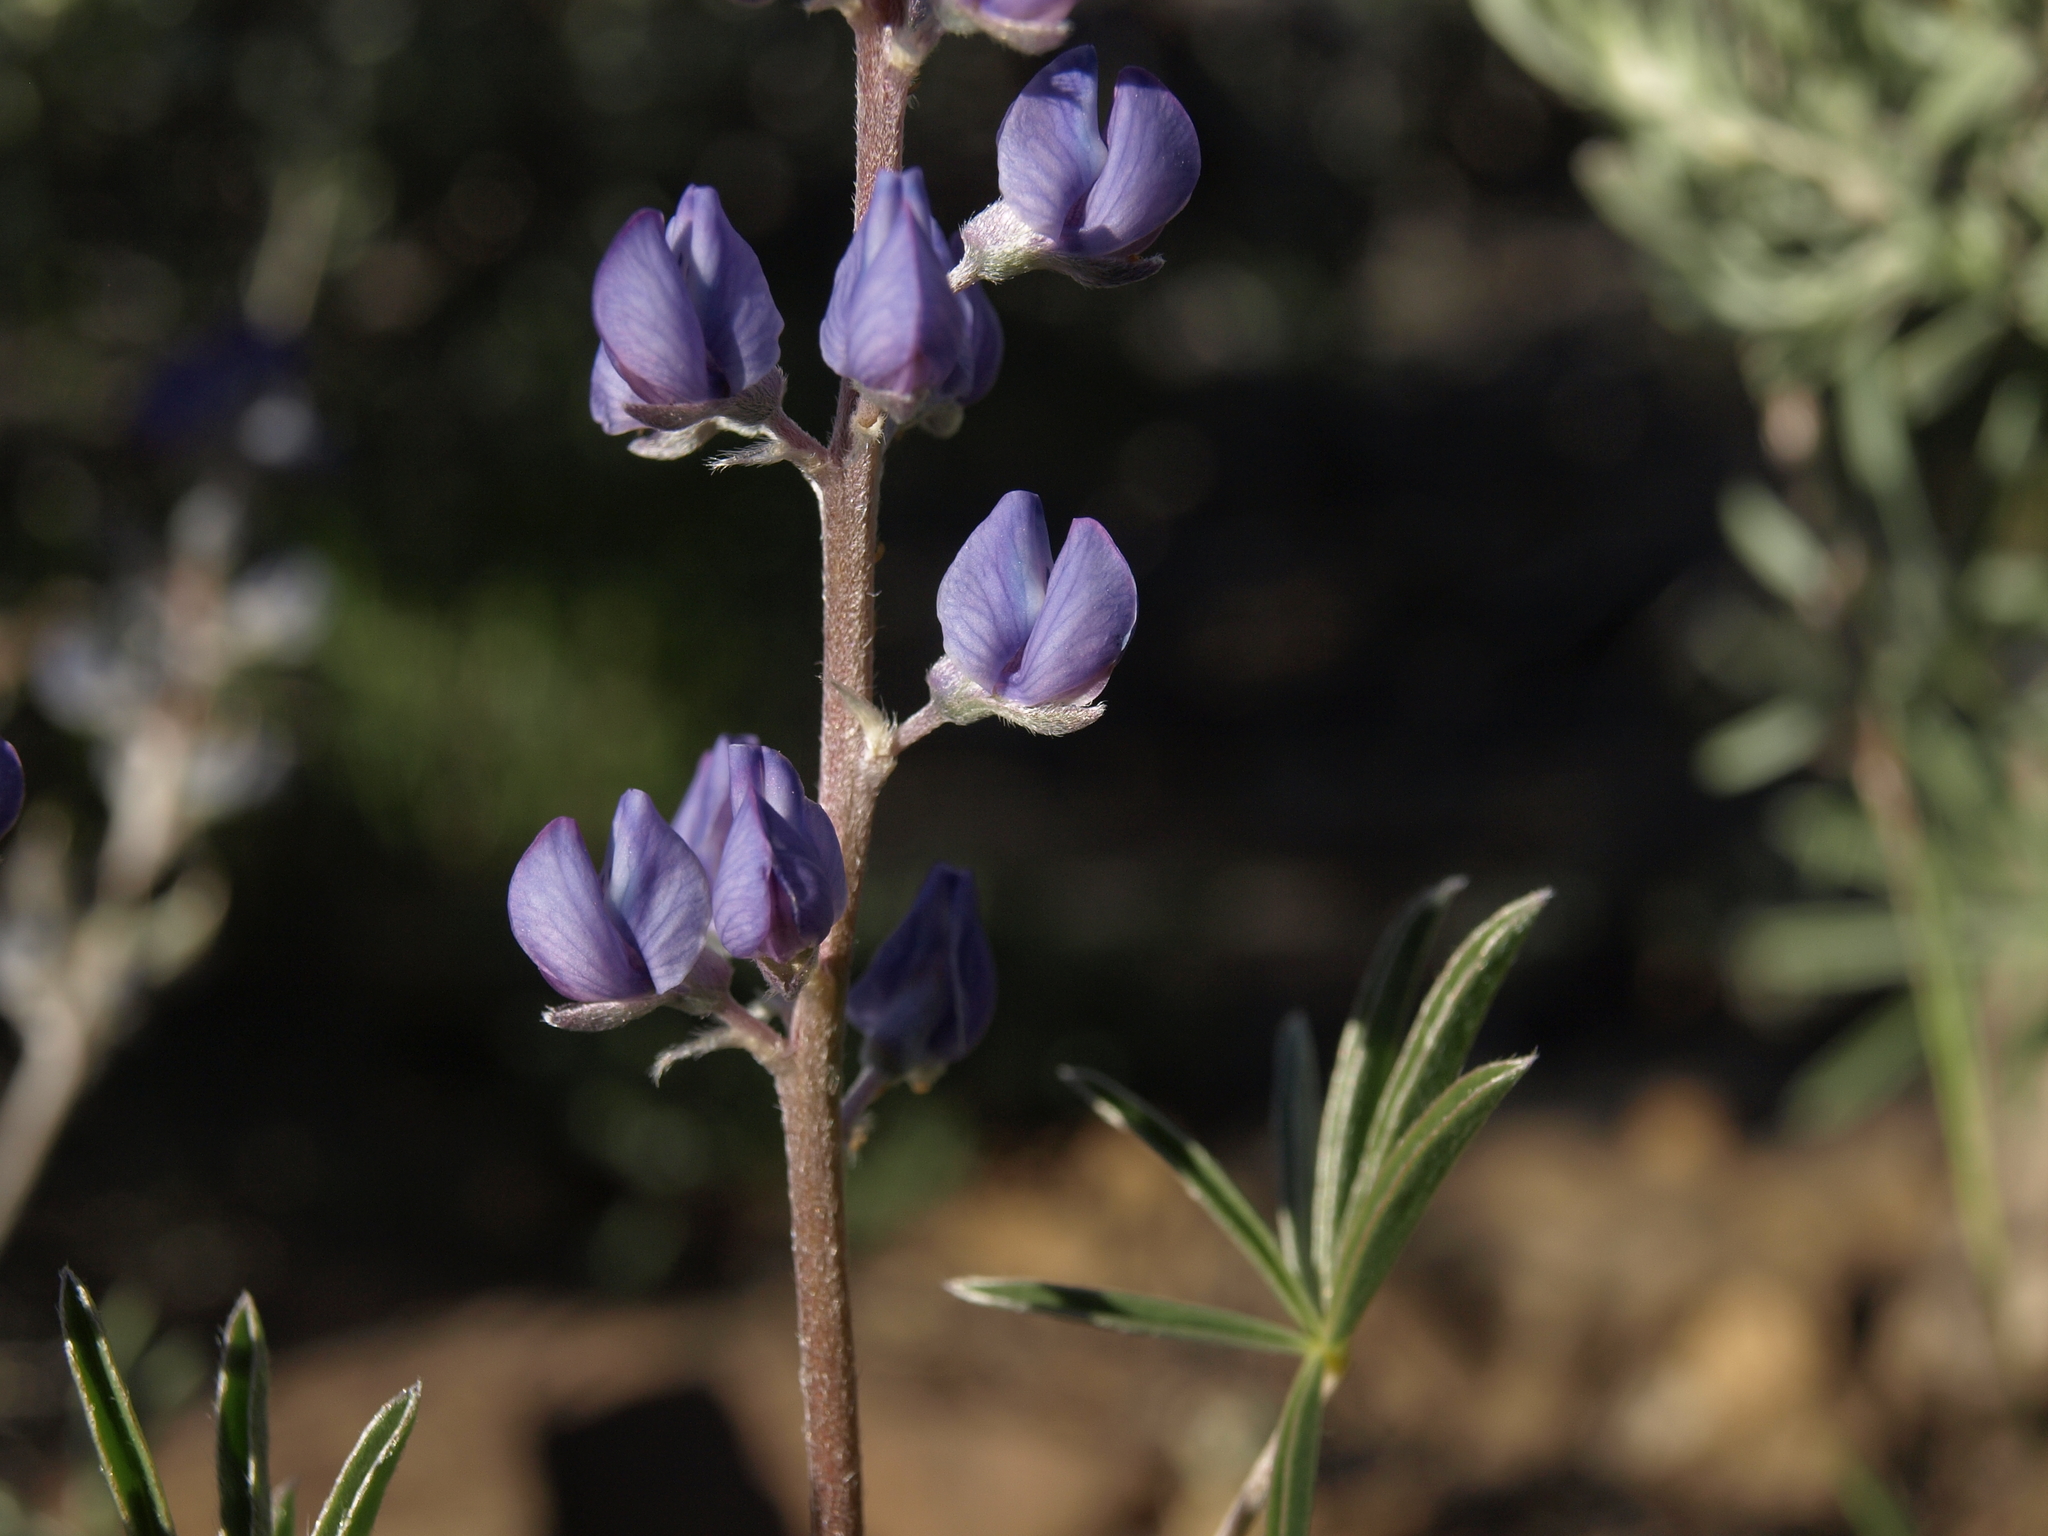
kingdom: Plantae
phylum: Tracheophyta
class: Magnoliopsida
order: Fabales
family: Fabaceae
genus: Lupinus
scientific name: Lupinus caudatus
